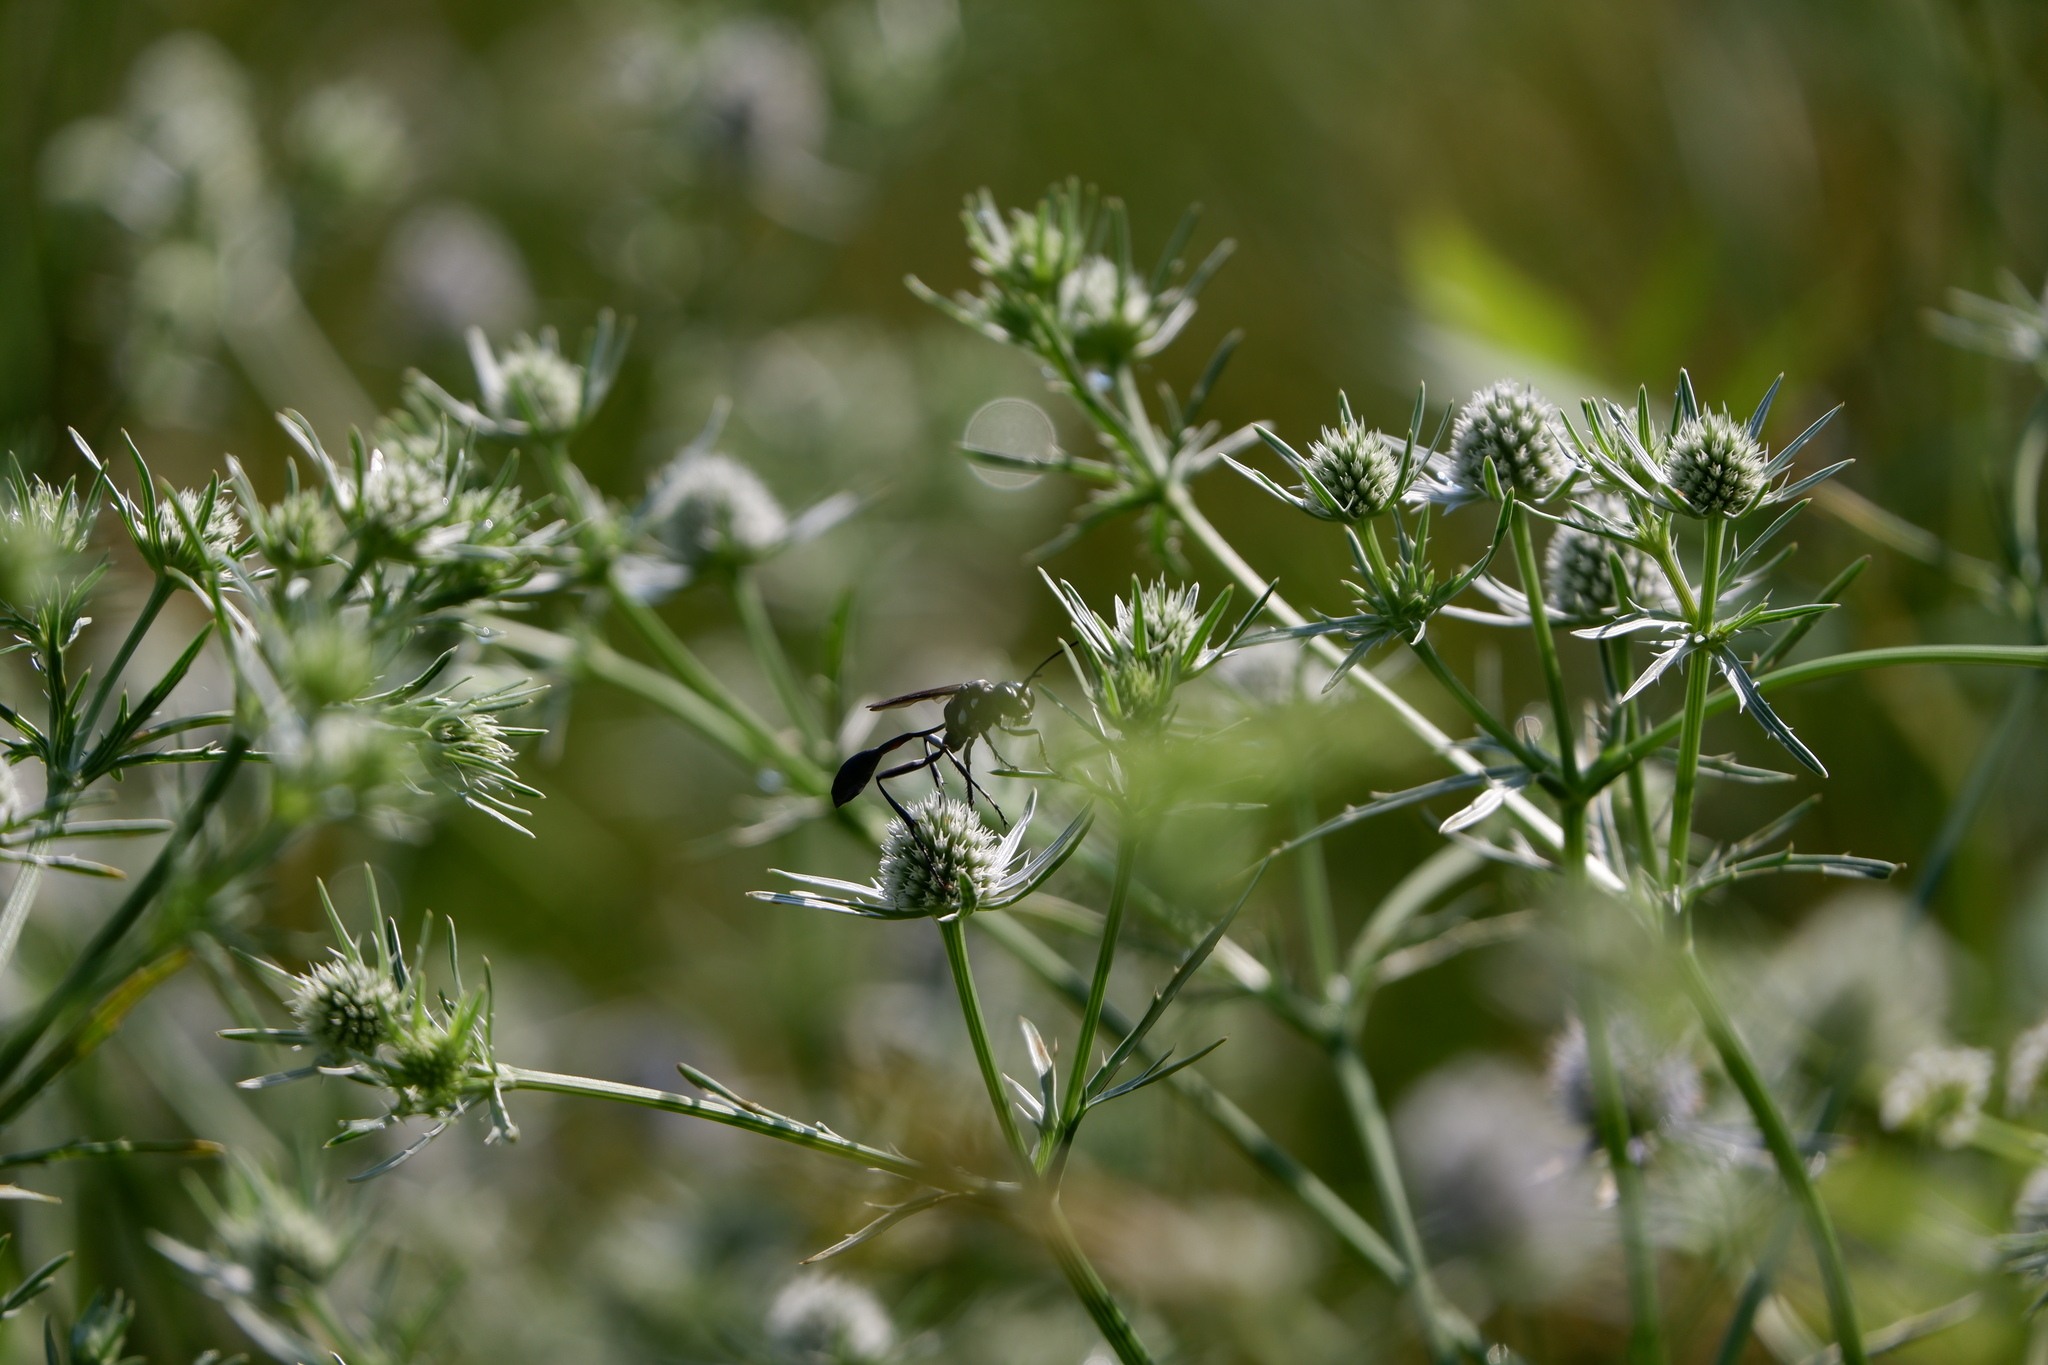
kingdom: Animalia
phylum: Arthropoda
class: Insecta
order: Hymenoptera
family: Sphecidae
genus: Eremnophila
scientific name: Eremnophila aureonotata
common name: Gold-marked thread-waisted wasp
